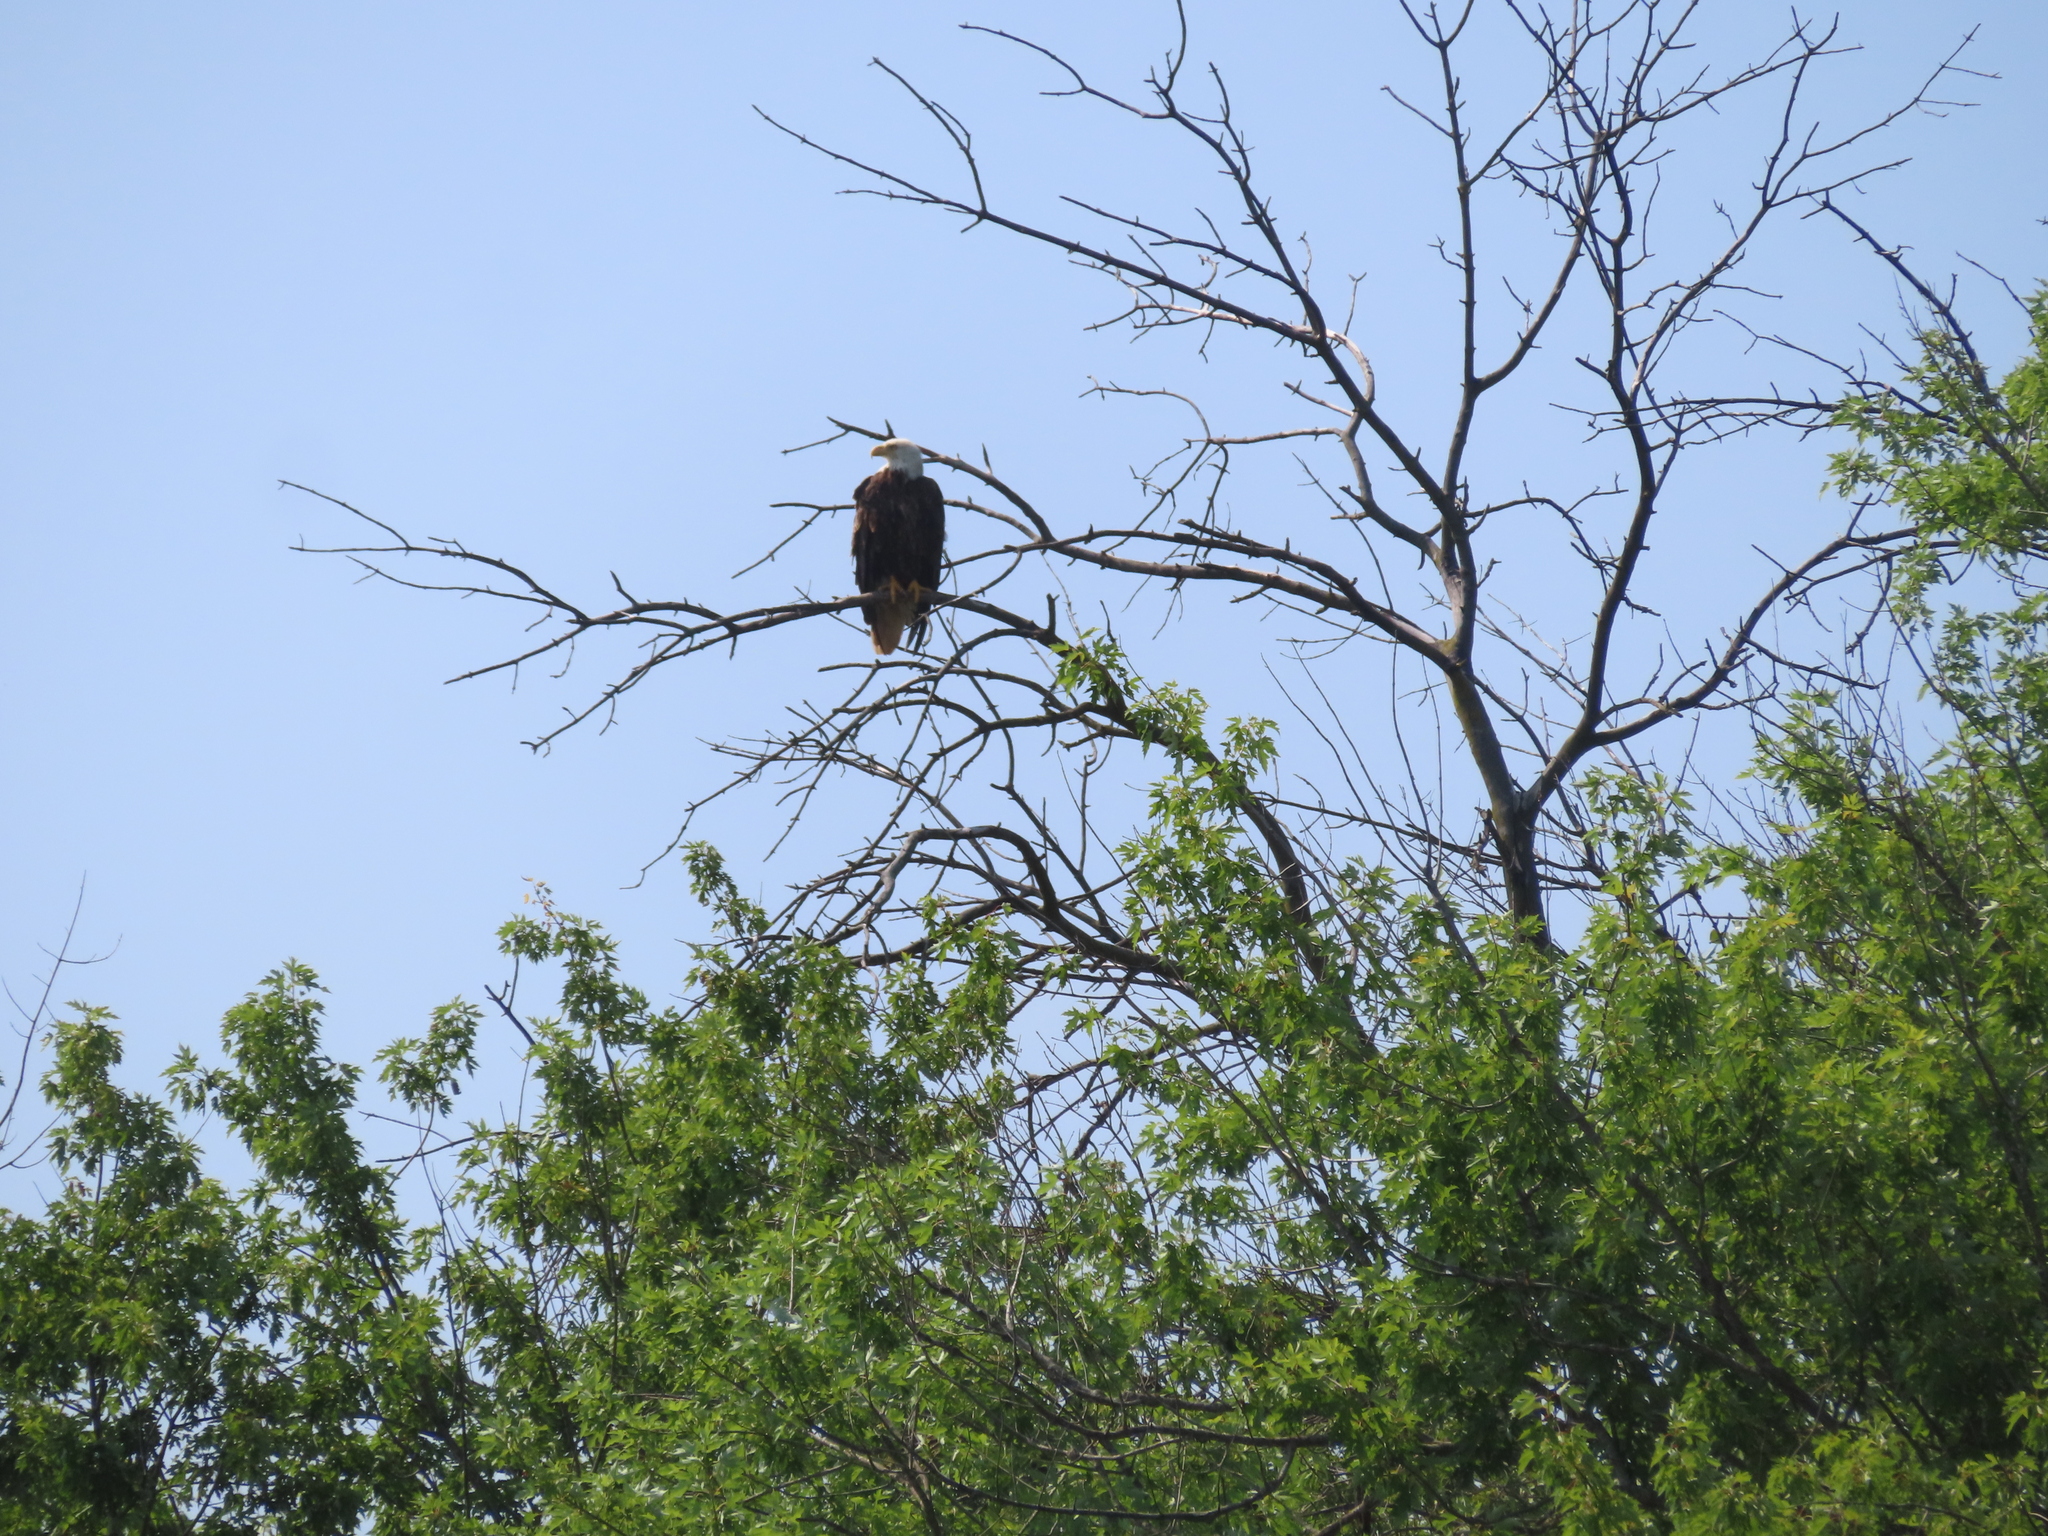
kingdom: Animalia
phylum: Chordata
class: Aves
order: Accipitriformes
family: Accipitridae
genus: Haliaeetus
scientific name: Haliaeetus leucocephalus
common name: Bald eagle
